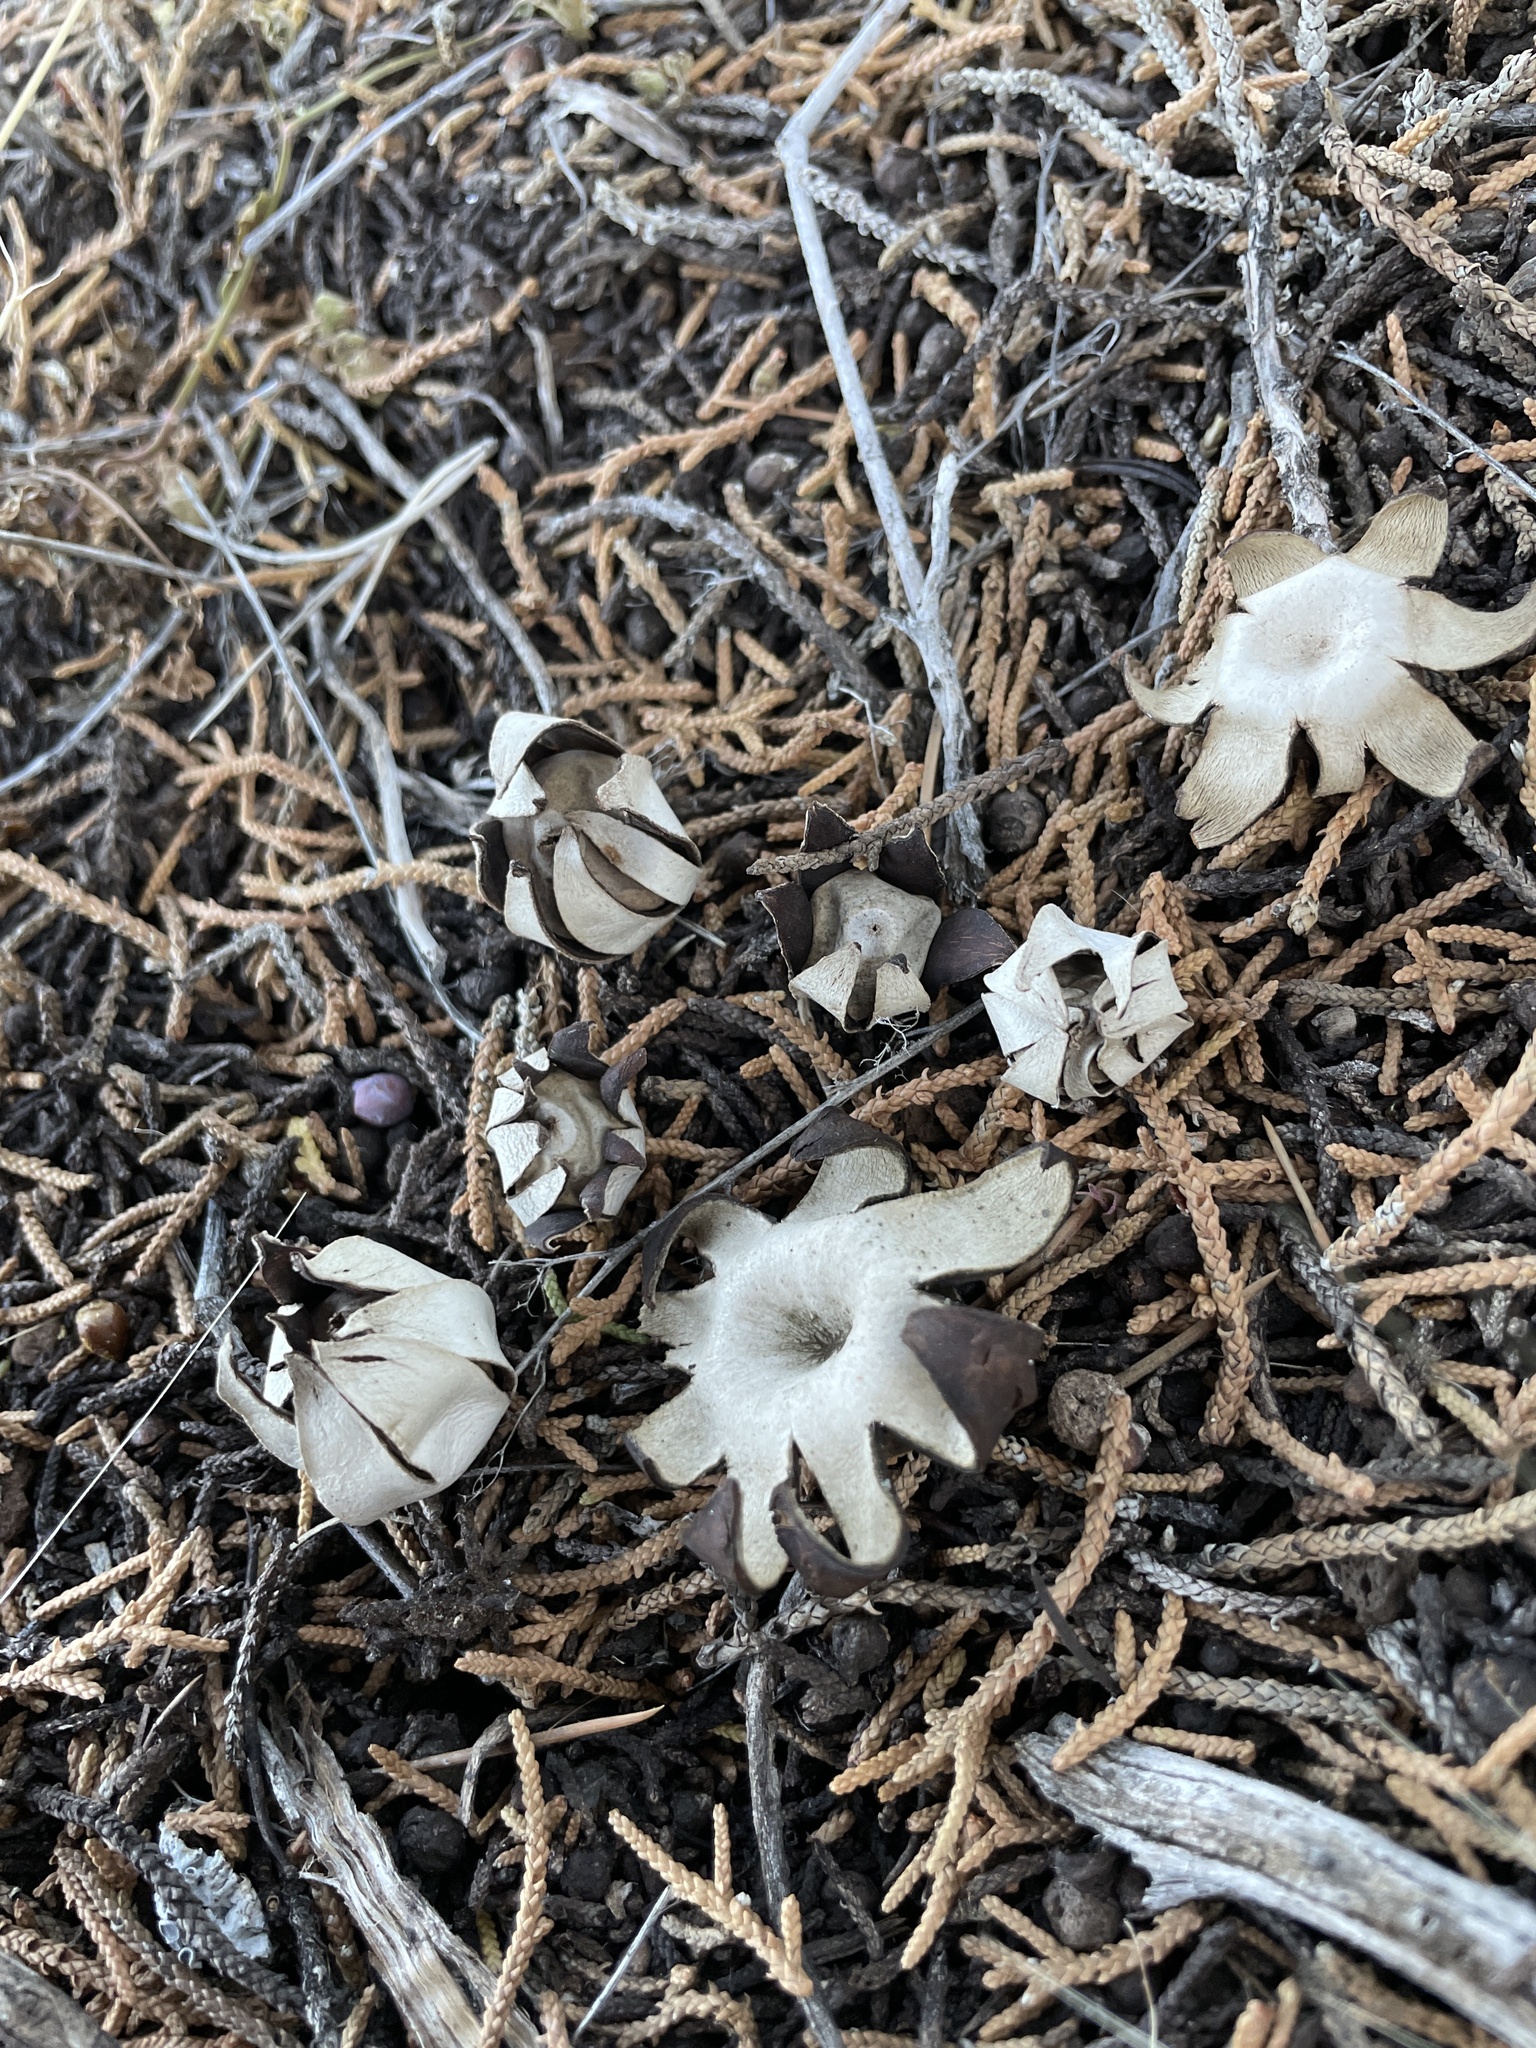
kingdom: Fungi
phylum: Basidiomycota
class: Agaricomycetes
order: Boletales
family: Diplocystidiaceae
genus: Astraeus
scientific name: Astraeus morganii
